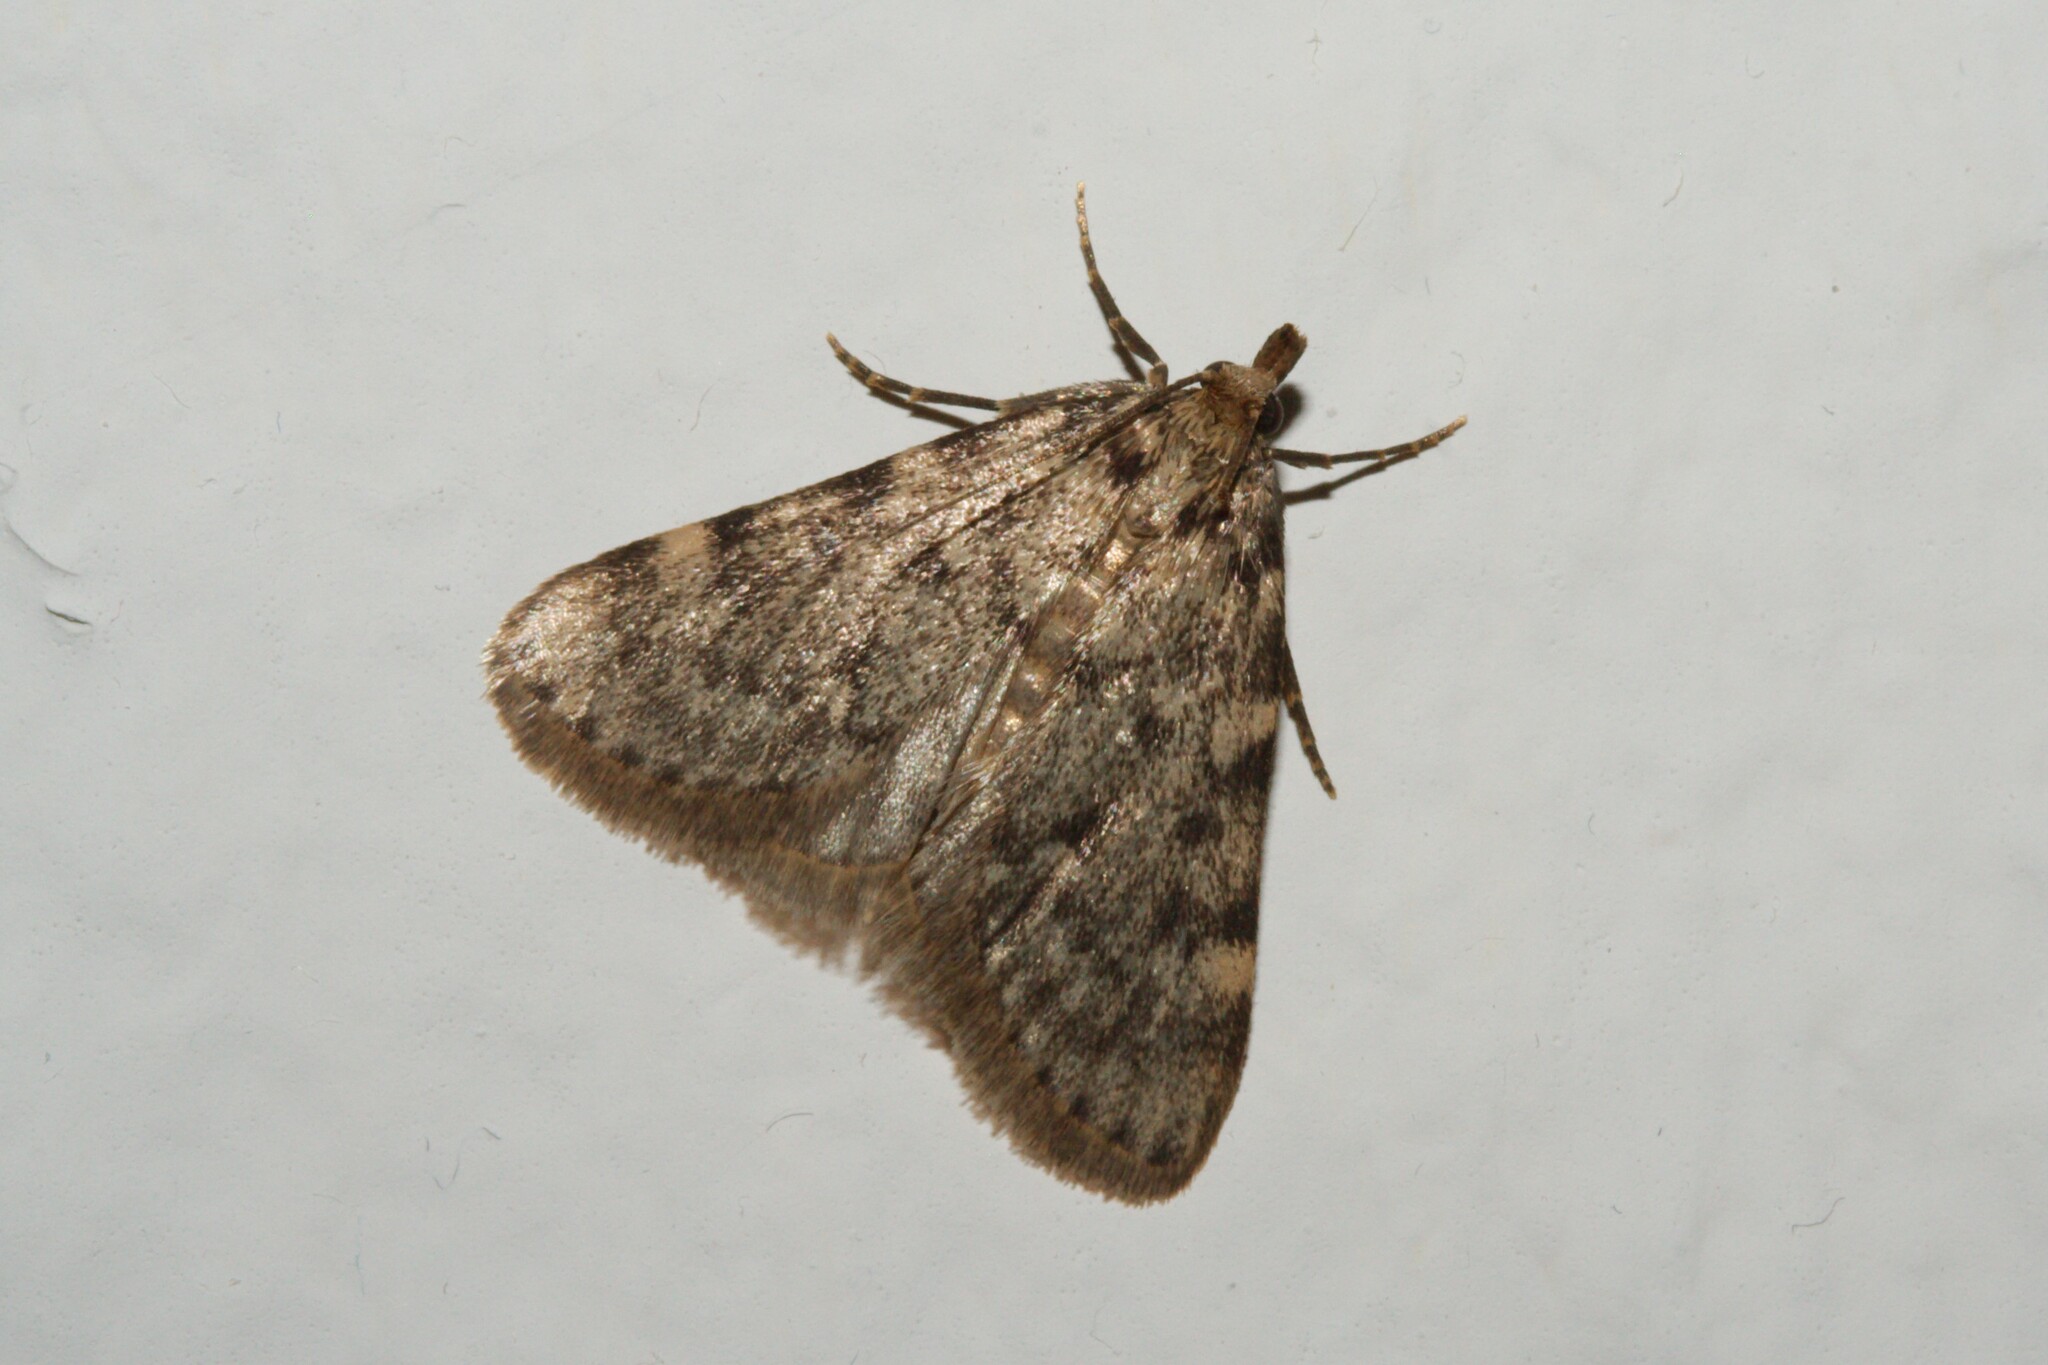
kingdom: Animalia
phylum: Arthropoda
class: Insecta
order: Lepidoptera
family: Pyralidae
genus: Aglossa
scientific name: Aglossa pinguinalis
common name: Large tabby
